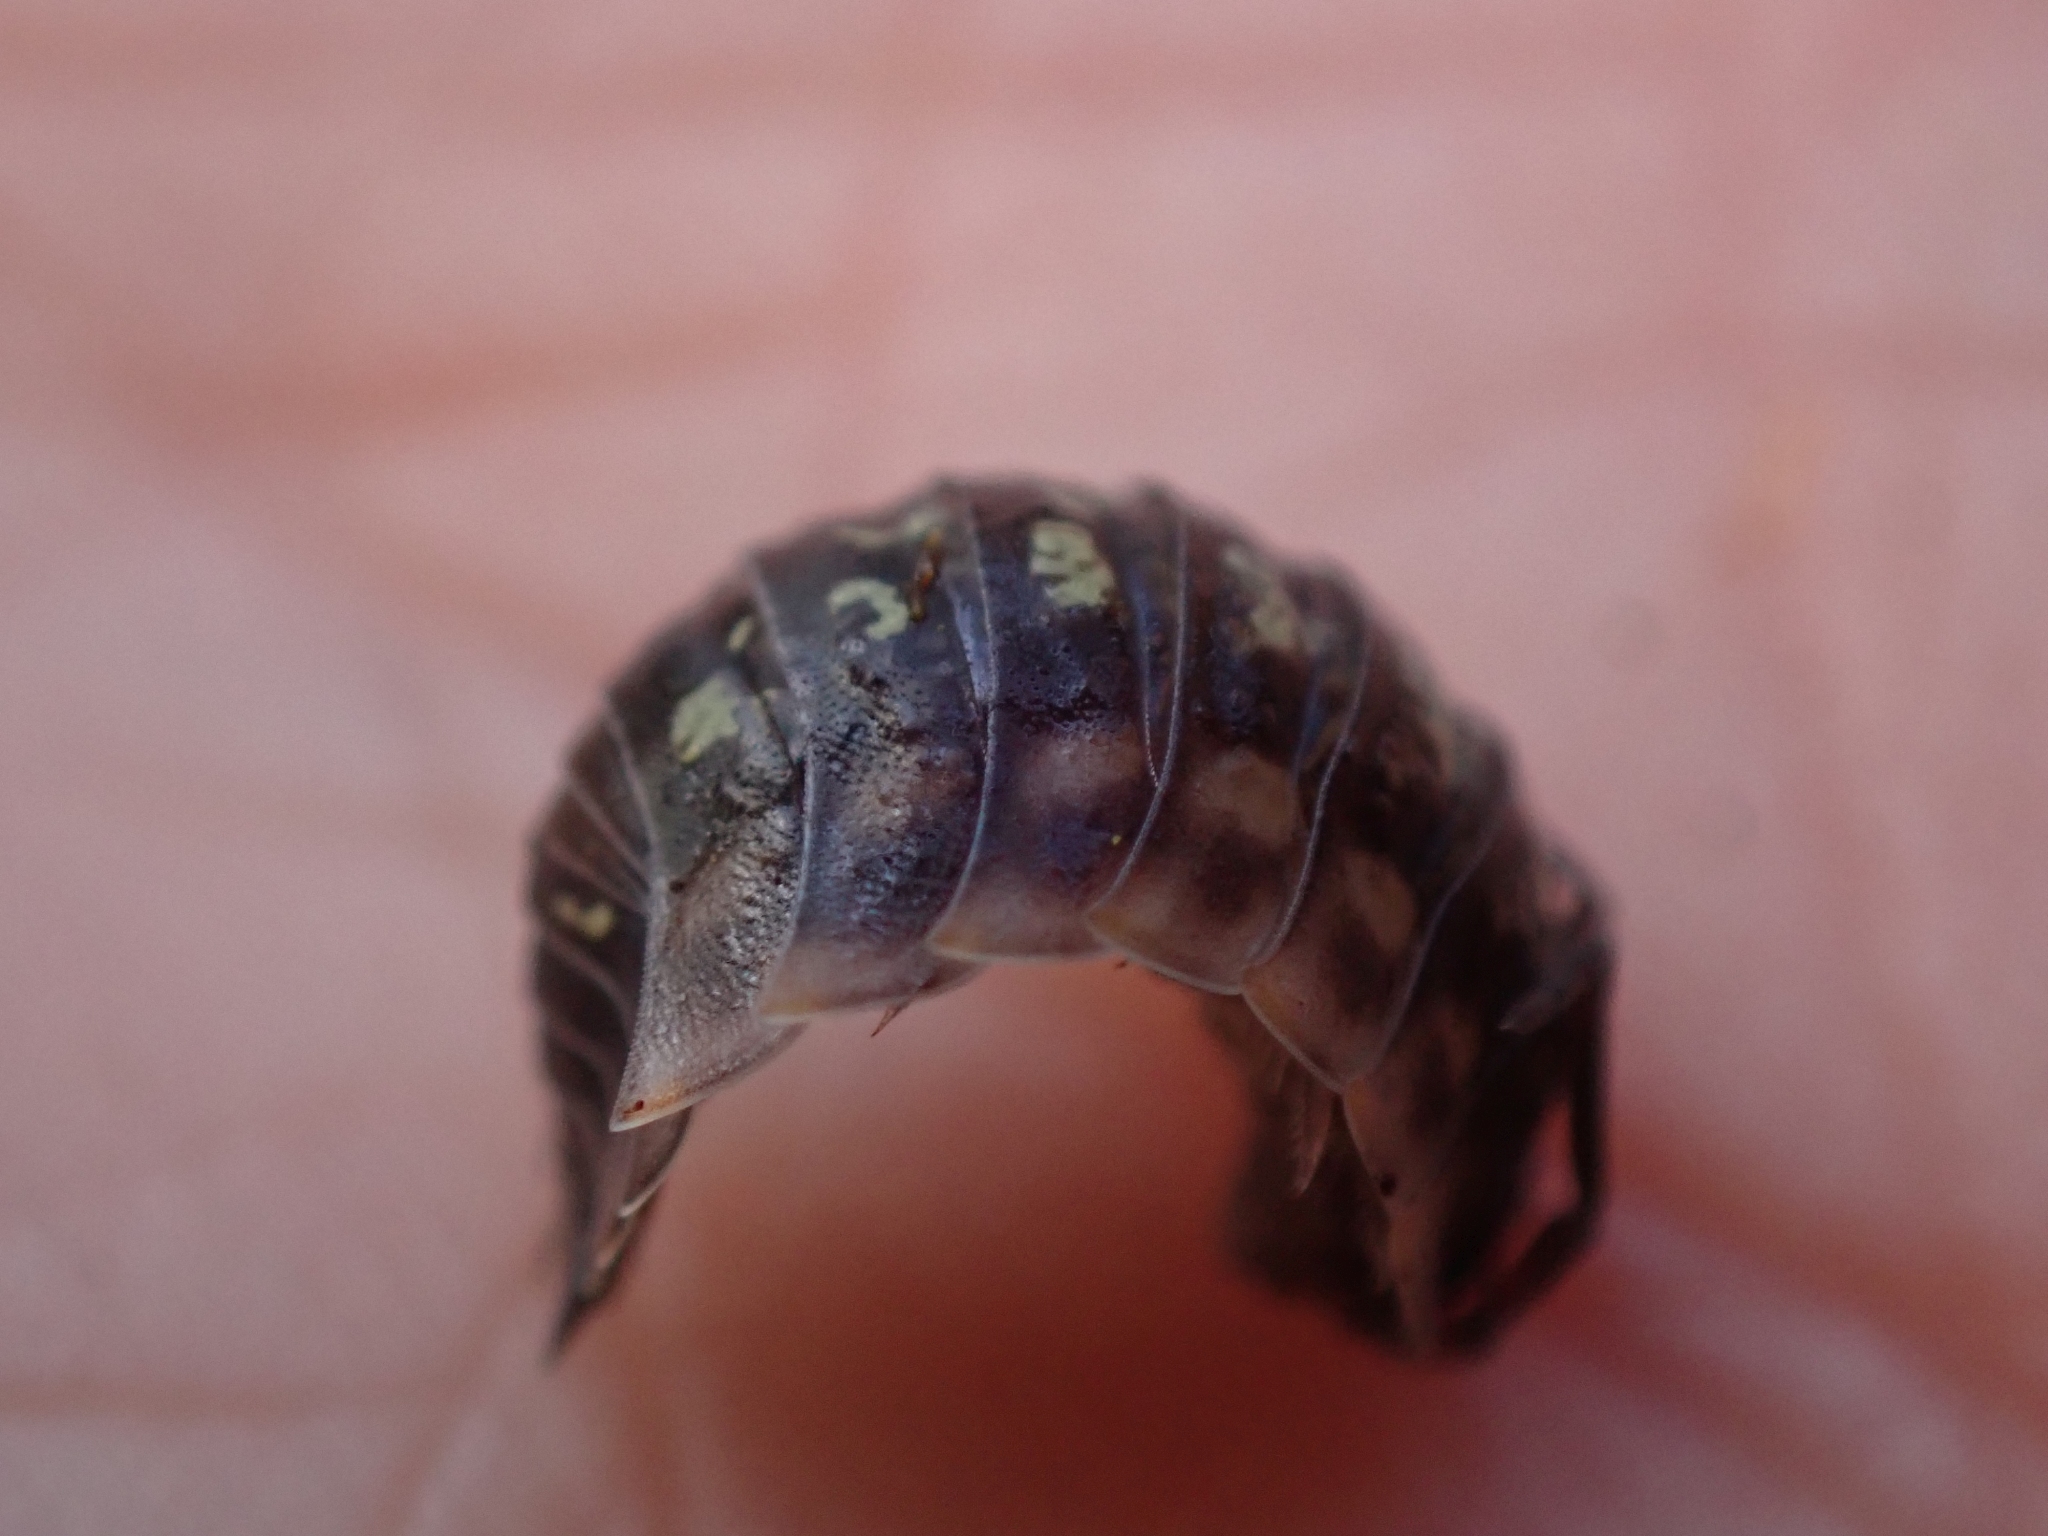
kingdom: Animalia
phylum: Arthropoda
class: Malacostraca
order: Isopoda
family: Oniscidae
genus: Oniscus
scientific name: Oniscus asellus
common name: Common shiny woodlouse
